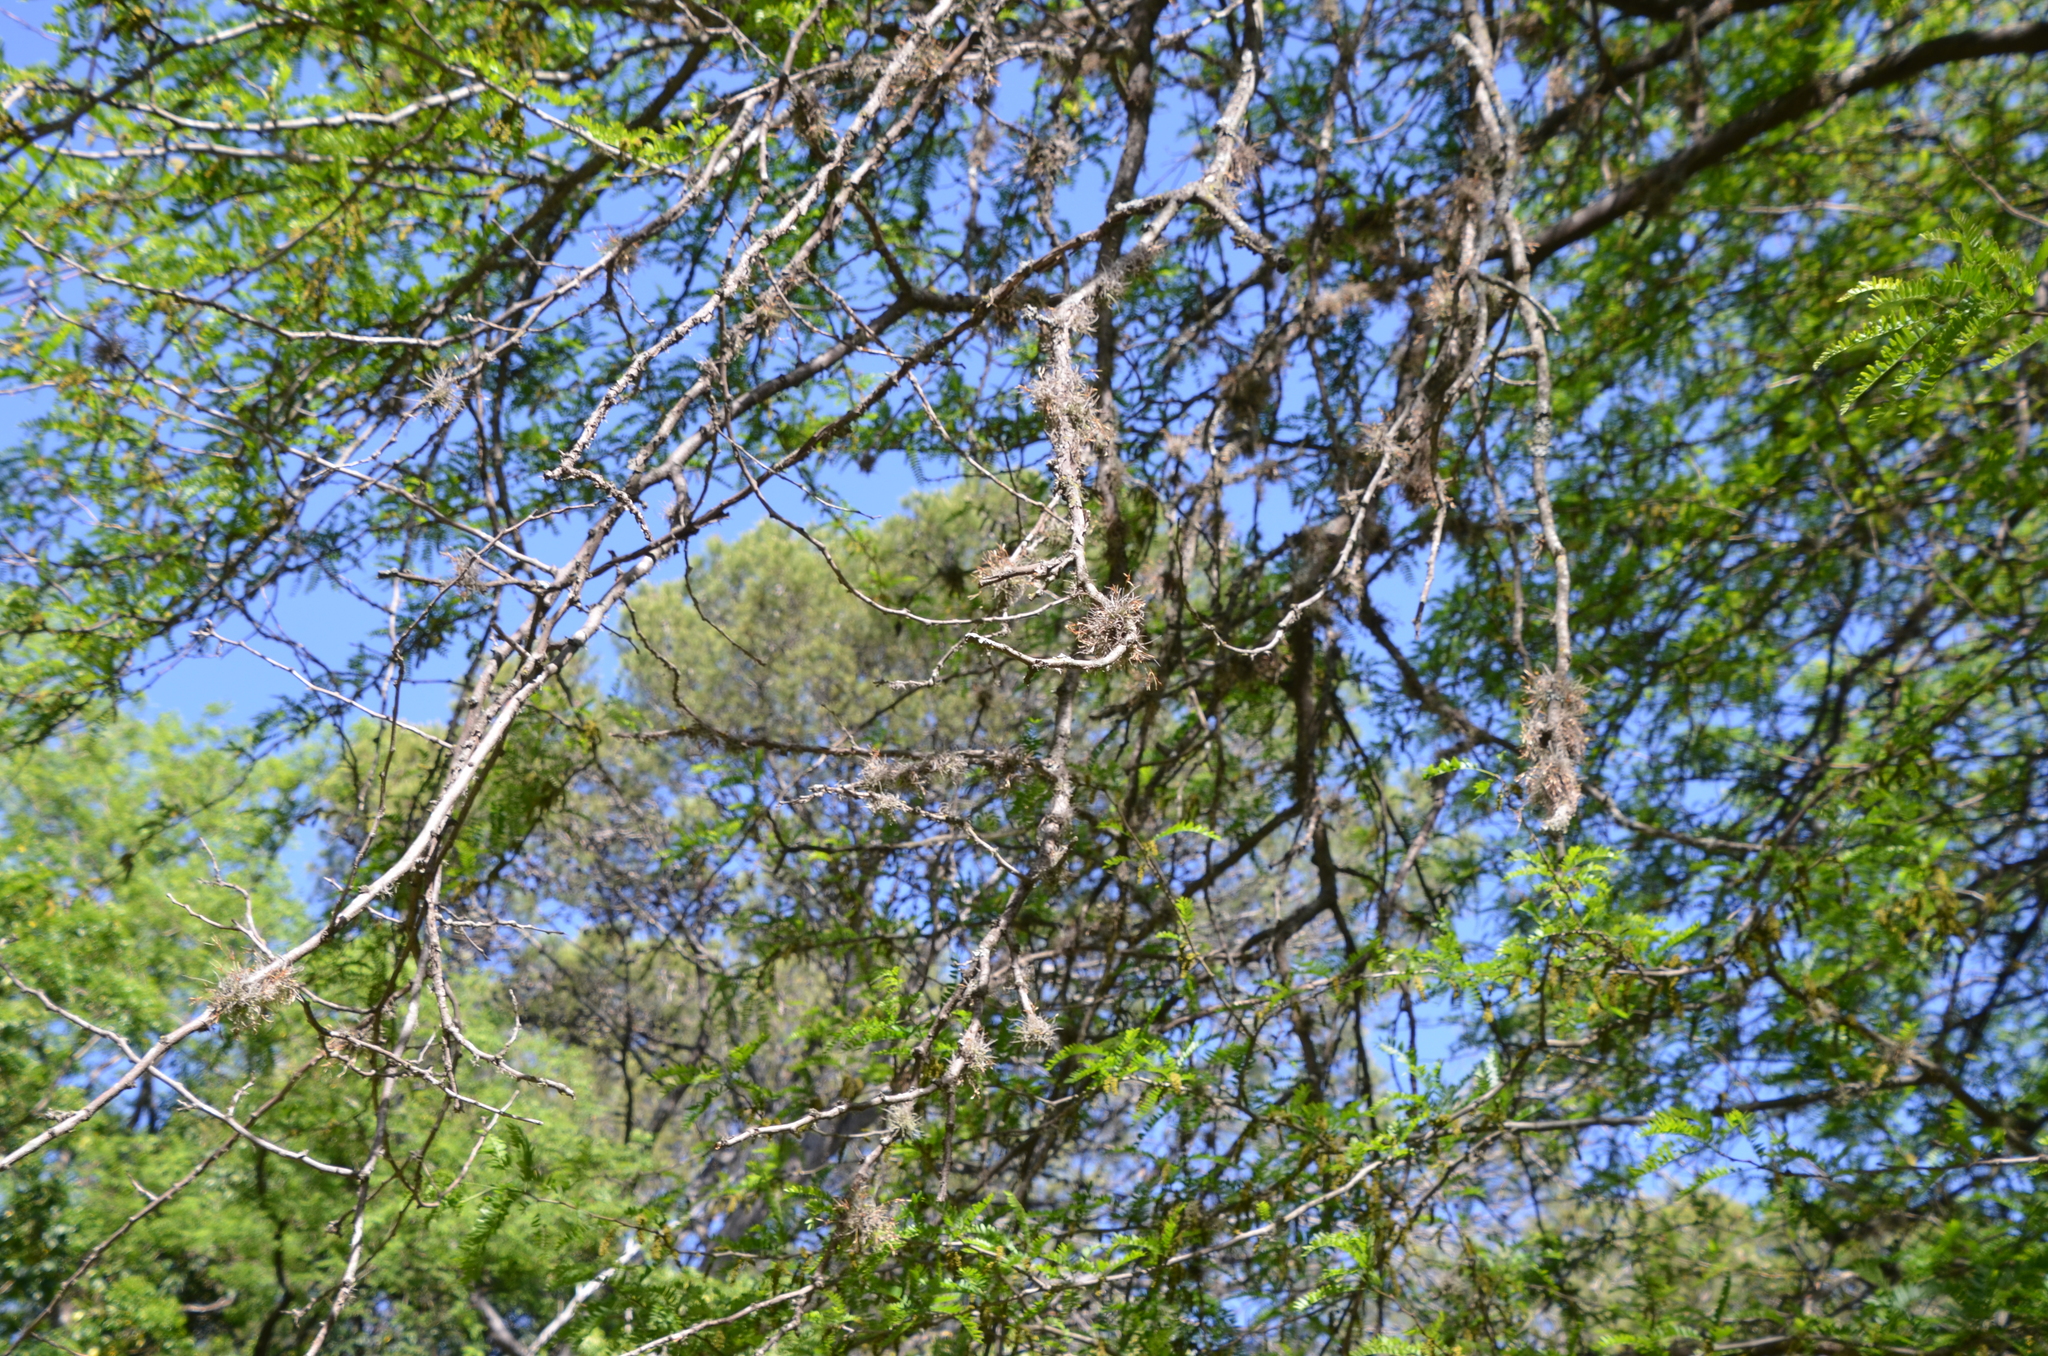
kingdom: Plantae
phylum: Tracheophyta
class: Liliopsida
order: Poales
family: Bromeliaceae
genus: Tillandsia
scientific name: Tillandsia recurvata
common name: Small ballmoss
